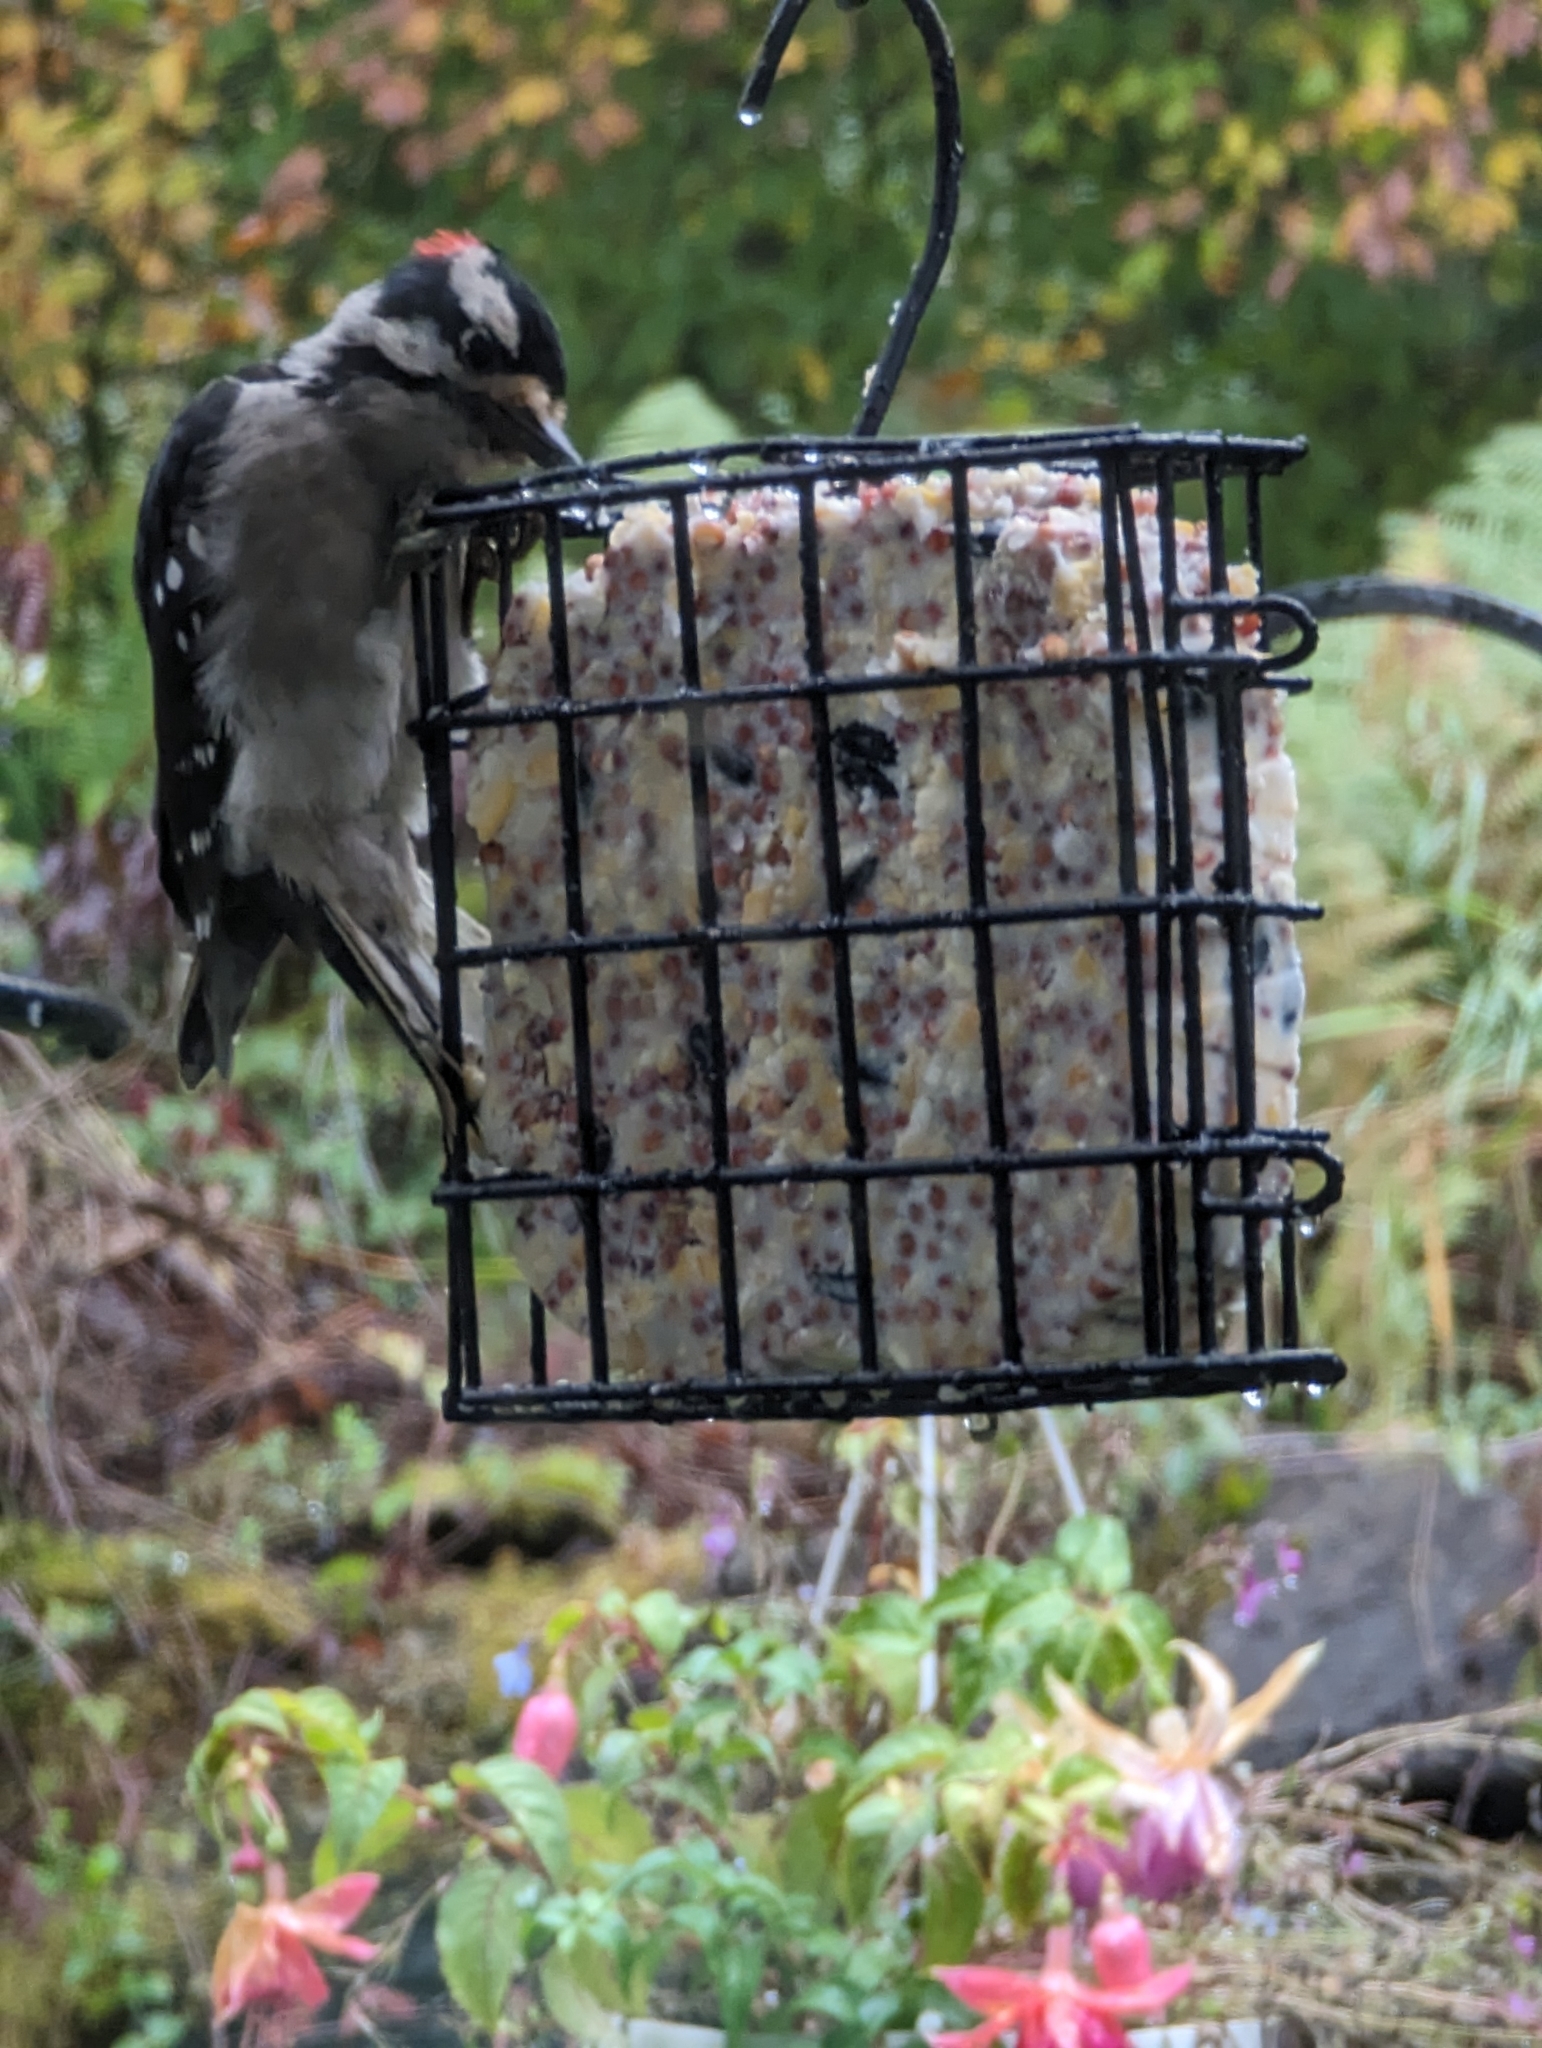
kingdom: Animalia
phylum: Chordata
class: Aves
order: Piciformes
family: Picidae
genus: Dryobates
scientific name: Dryobates pubescens
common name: Downy woodpecker
